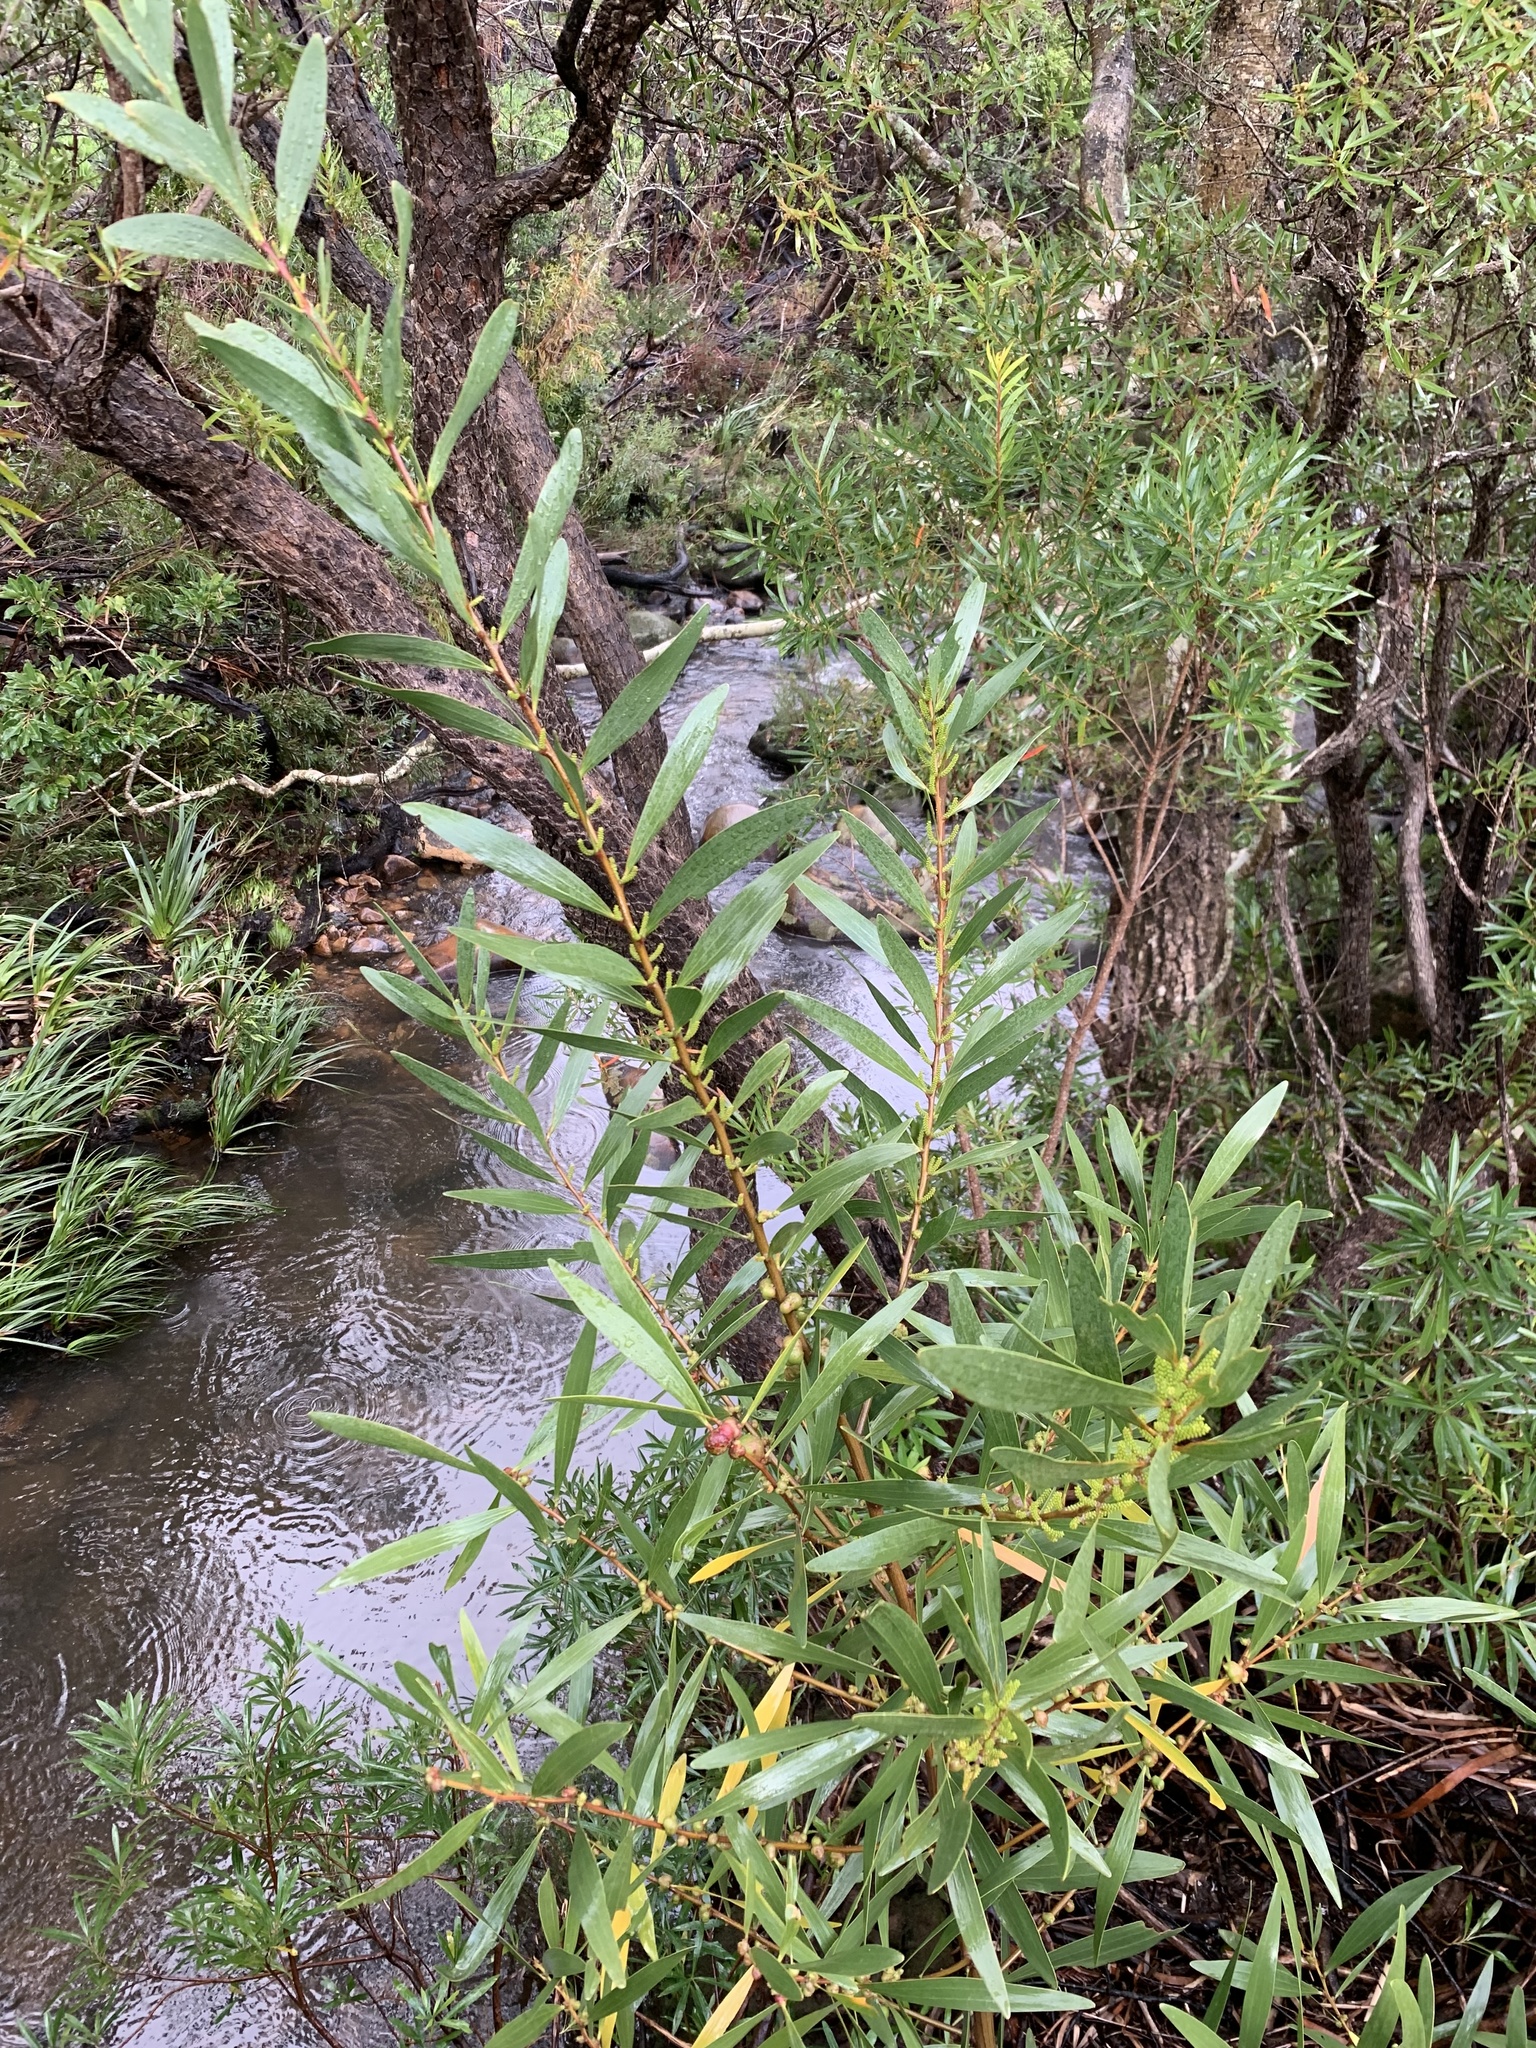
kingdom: Plantae
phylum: Tracheophyta
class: Magnoliopsida
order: Fabales
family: Fabaceae
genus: Acacia
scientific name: Acacia longifolia
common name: Sydney golden wattle
